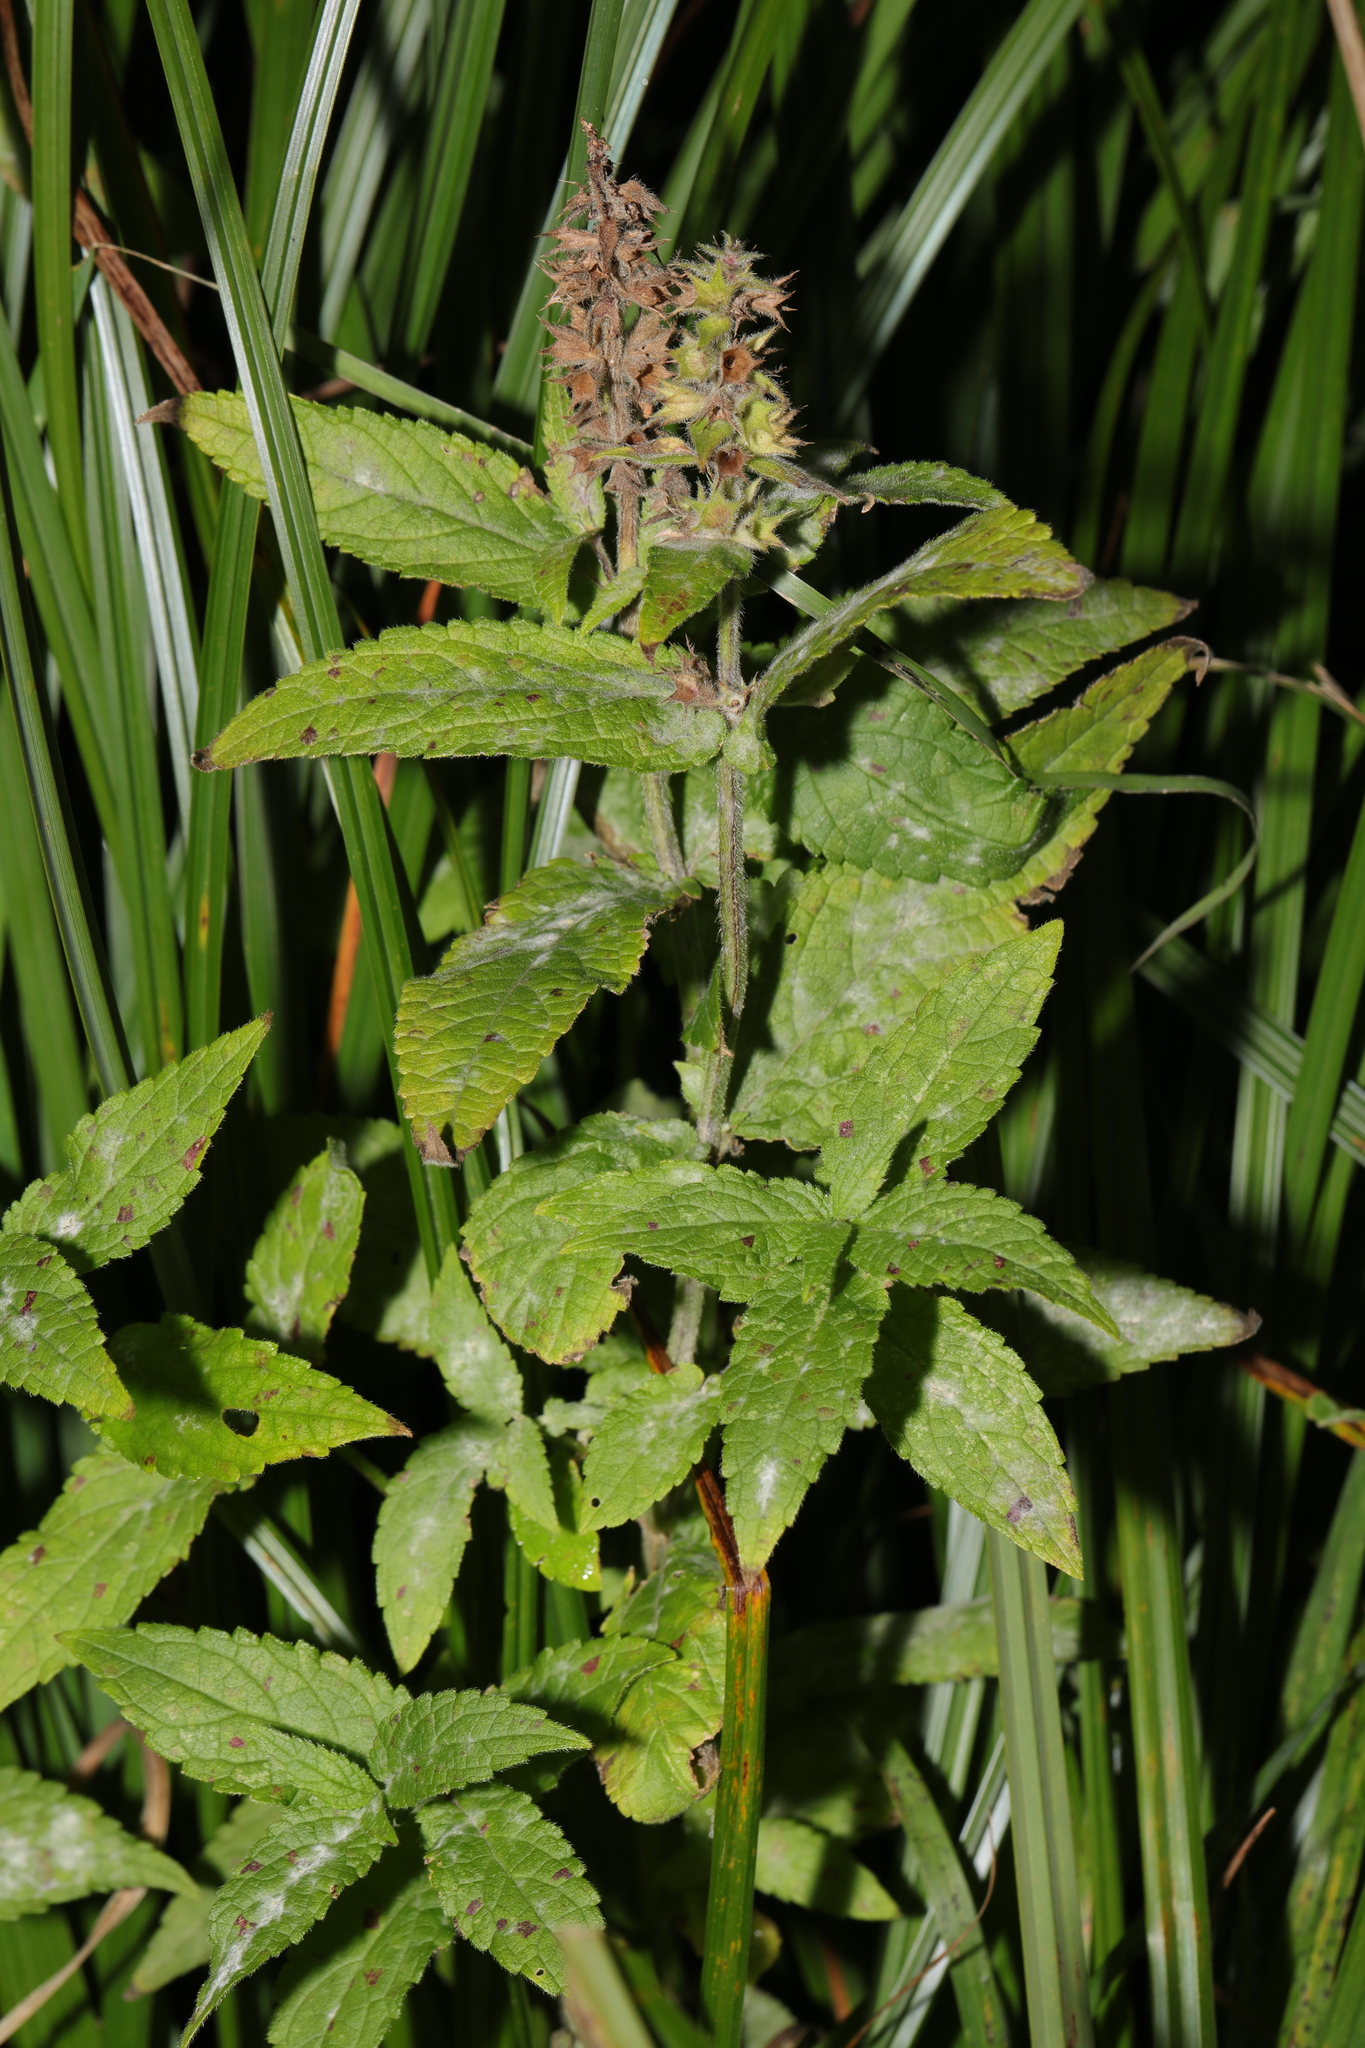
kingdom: Plantae
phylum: Tracheophyta
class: Magnoliopsida
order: Lamiales
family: Lamiaceae
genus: Stachys
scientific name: Stachys palustris
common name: Marsh woundwort
